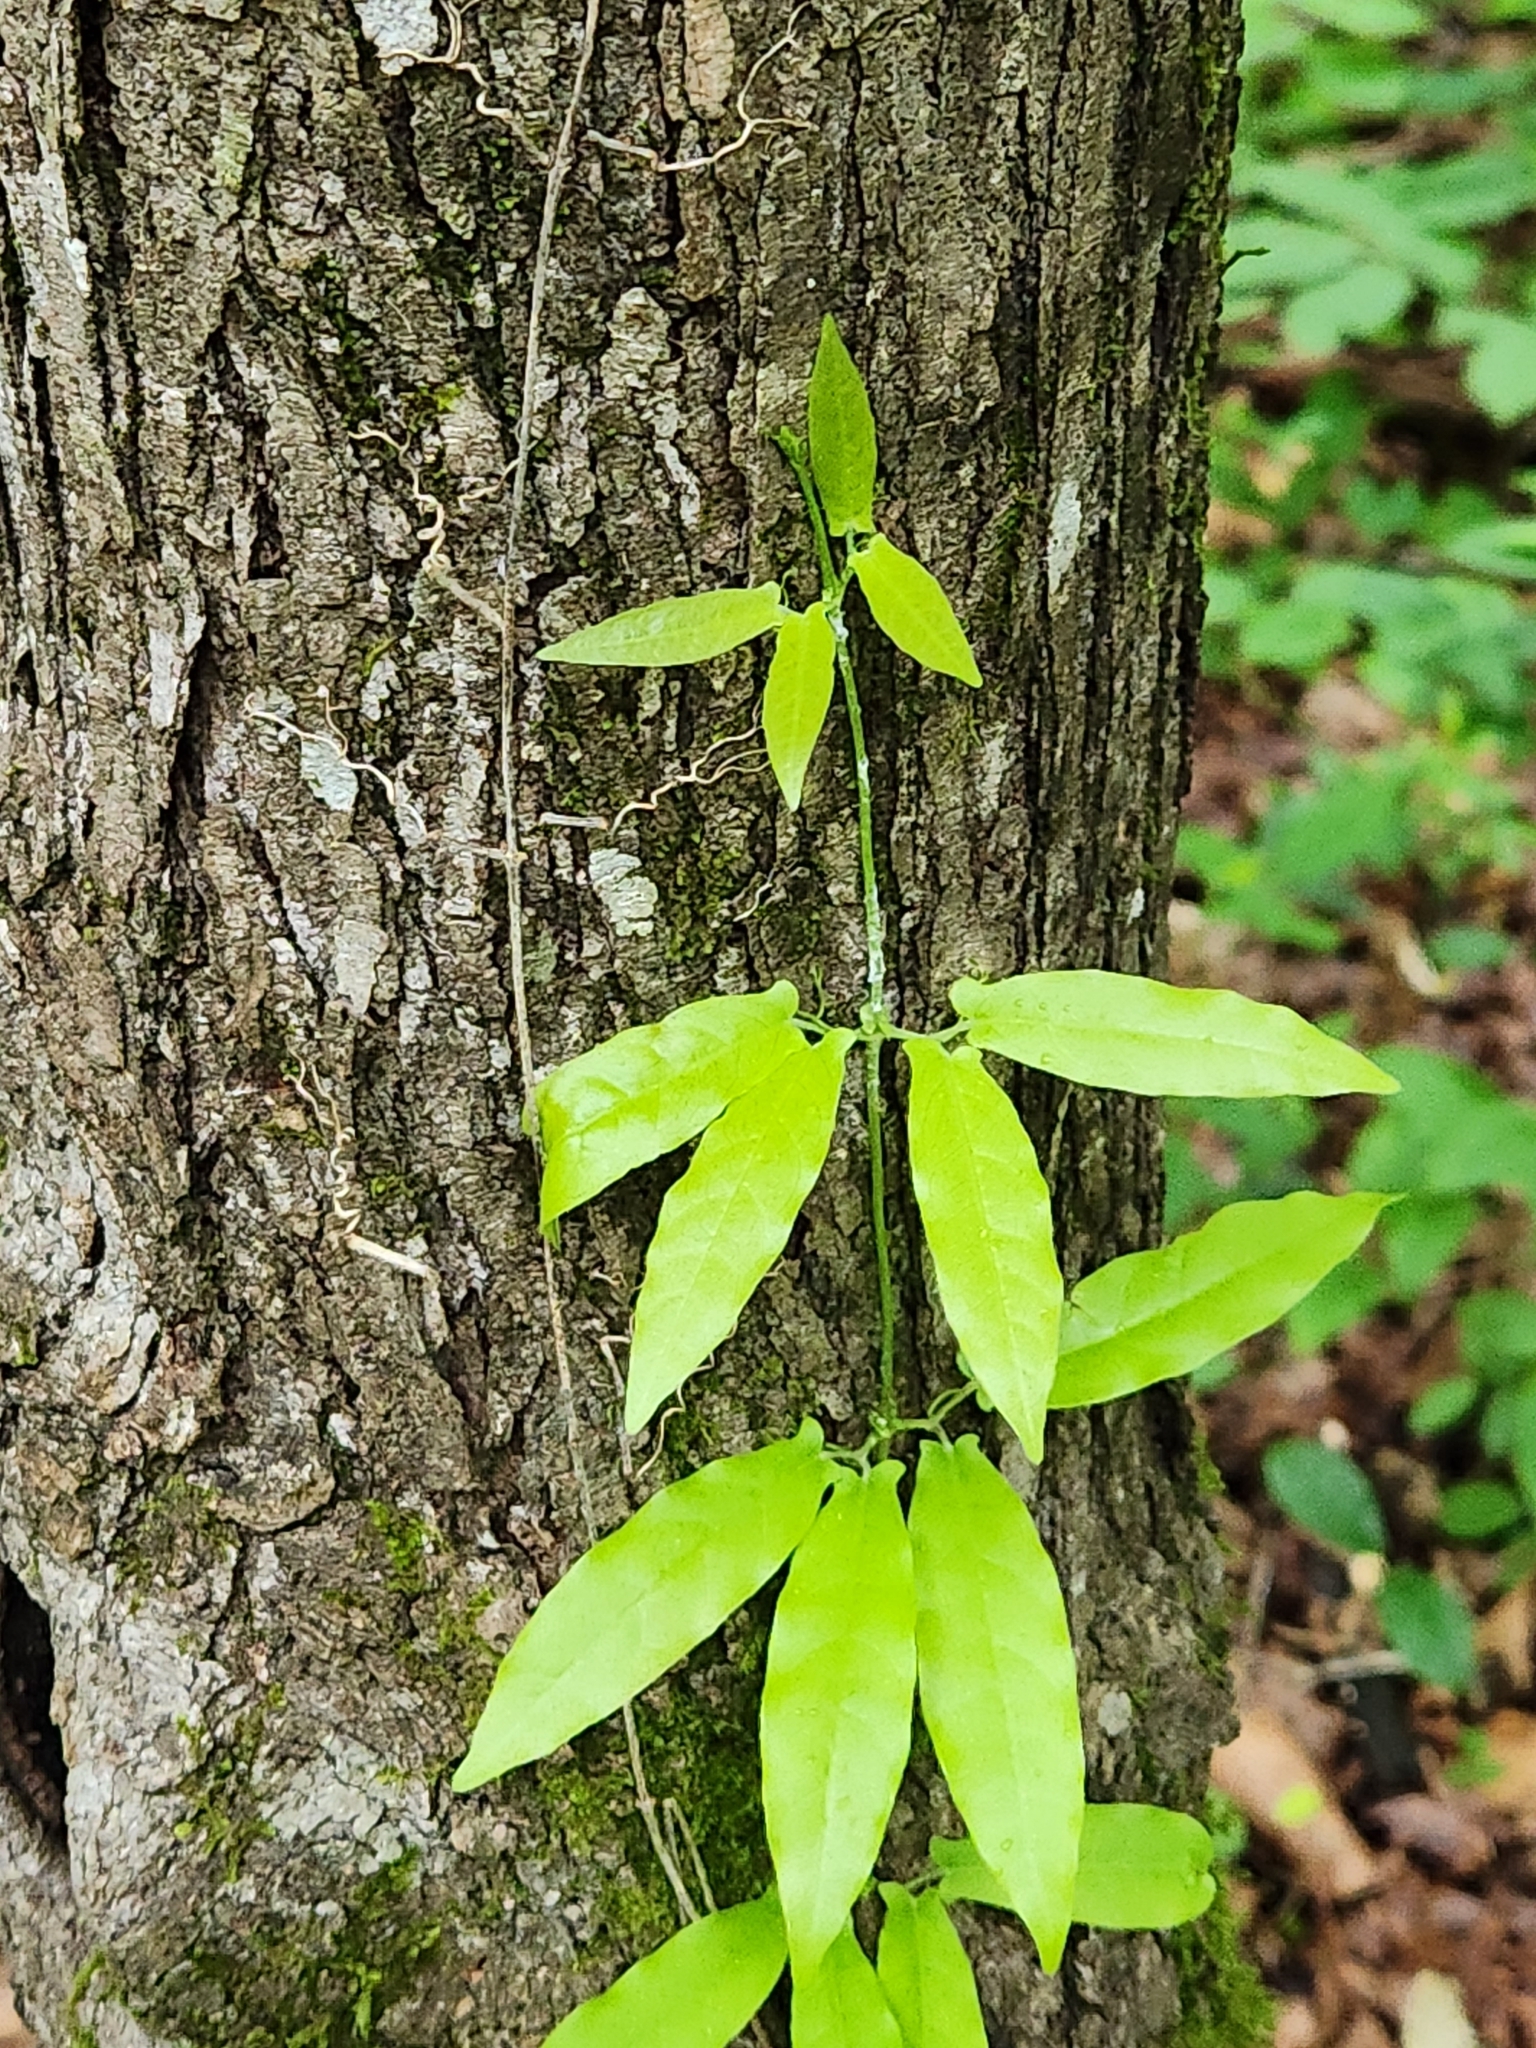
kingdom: Plantae
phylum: Tracheophyta
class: Magnoliopsida
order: Lamiales
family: Bignoniaceae
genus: Bignonia
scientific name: Bignonia capreolata
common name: Crossvine
